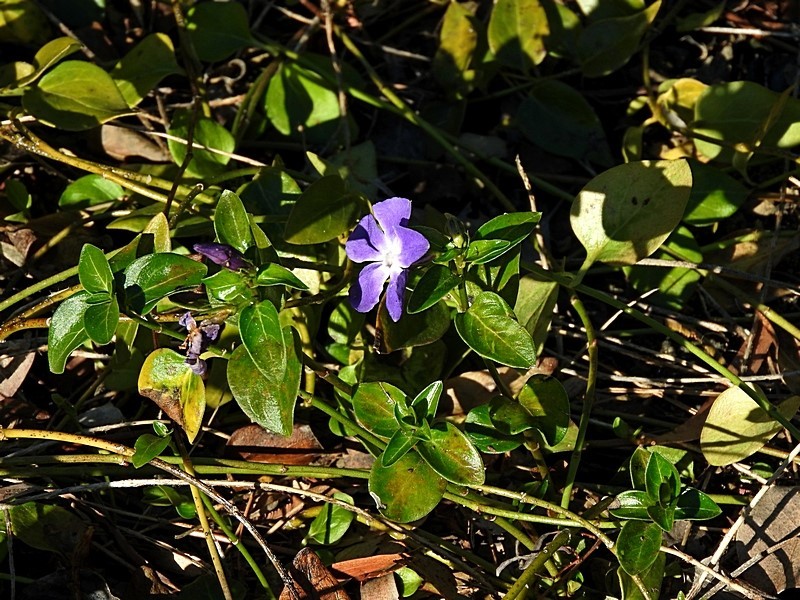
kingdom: Plantae
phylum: Tracheophyta
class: Magnoliopsida
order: Gentianales
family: Apocynaceae
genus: Vinca
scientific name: Vinca major
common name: Greater periwinkle
